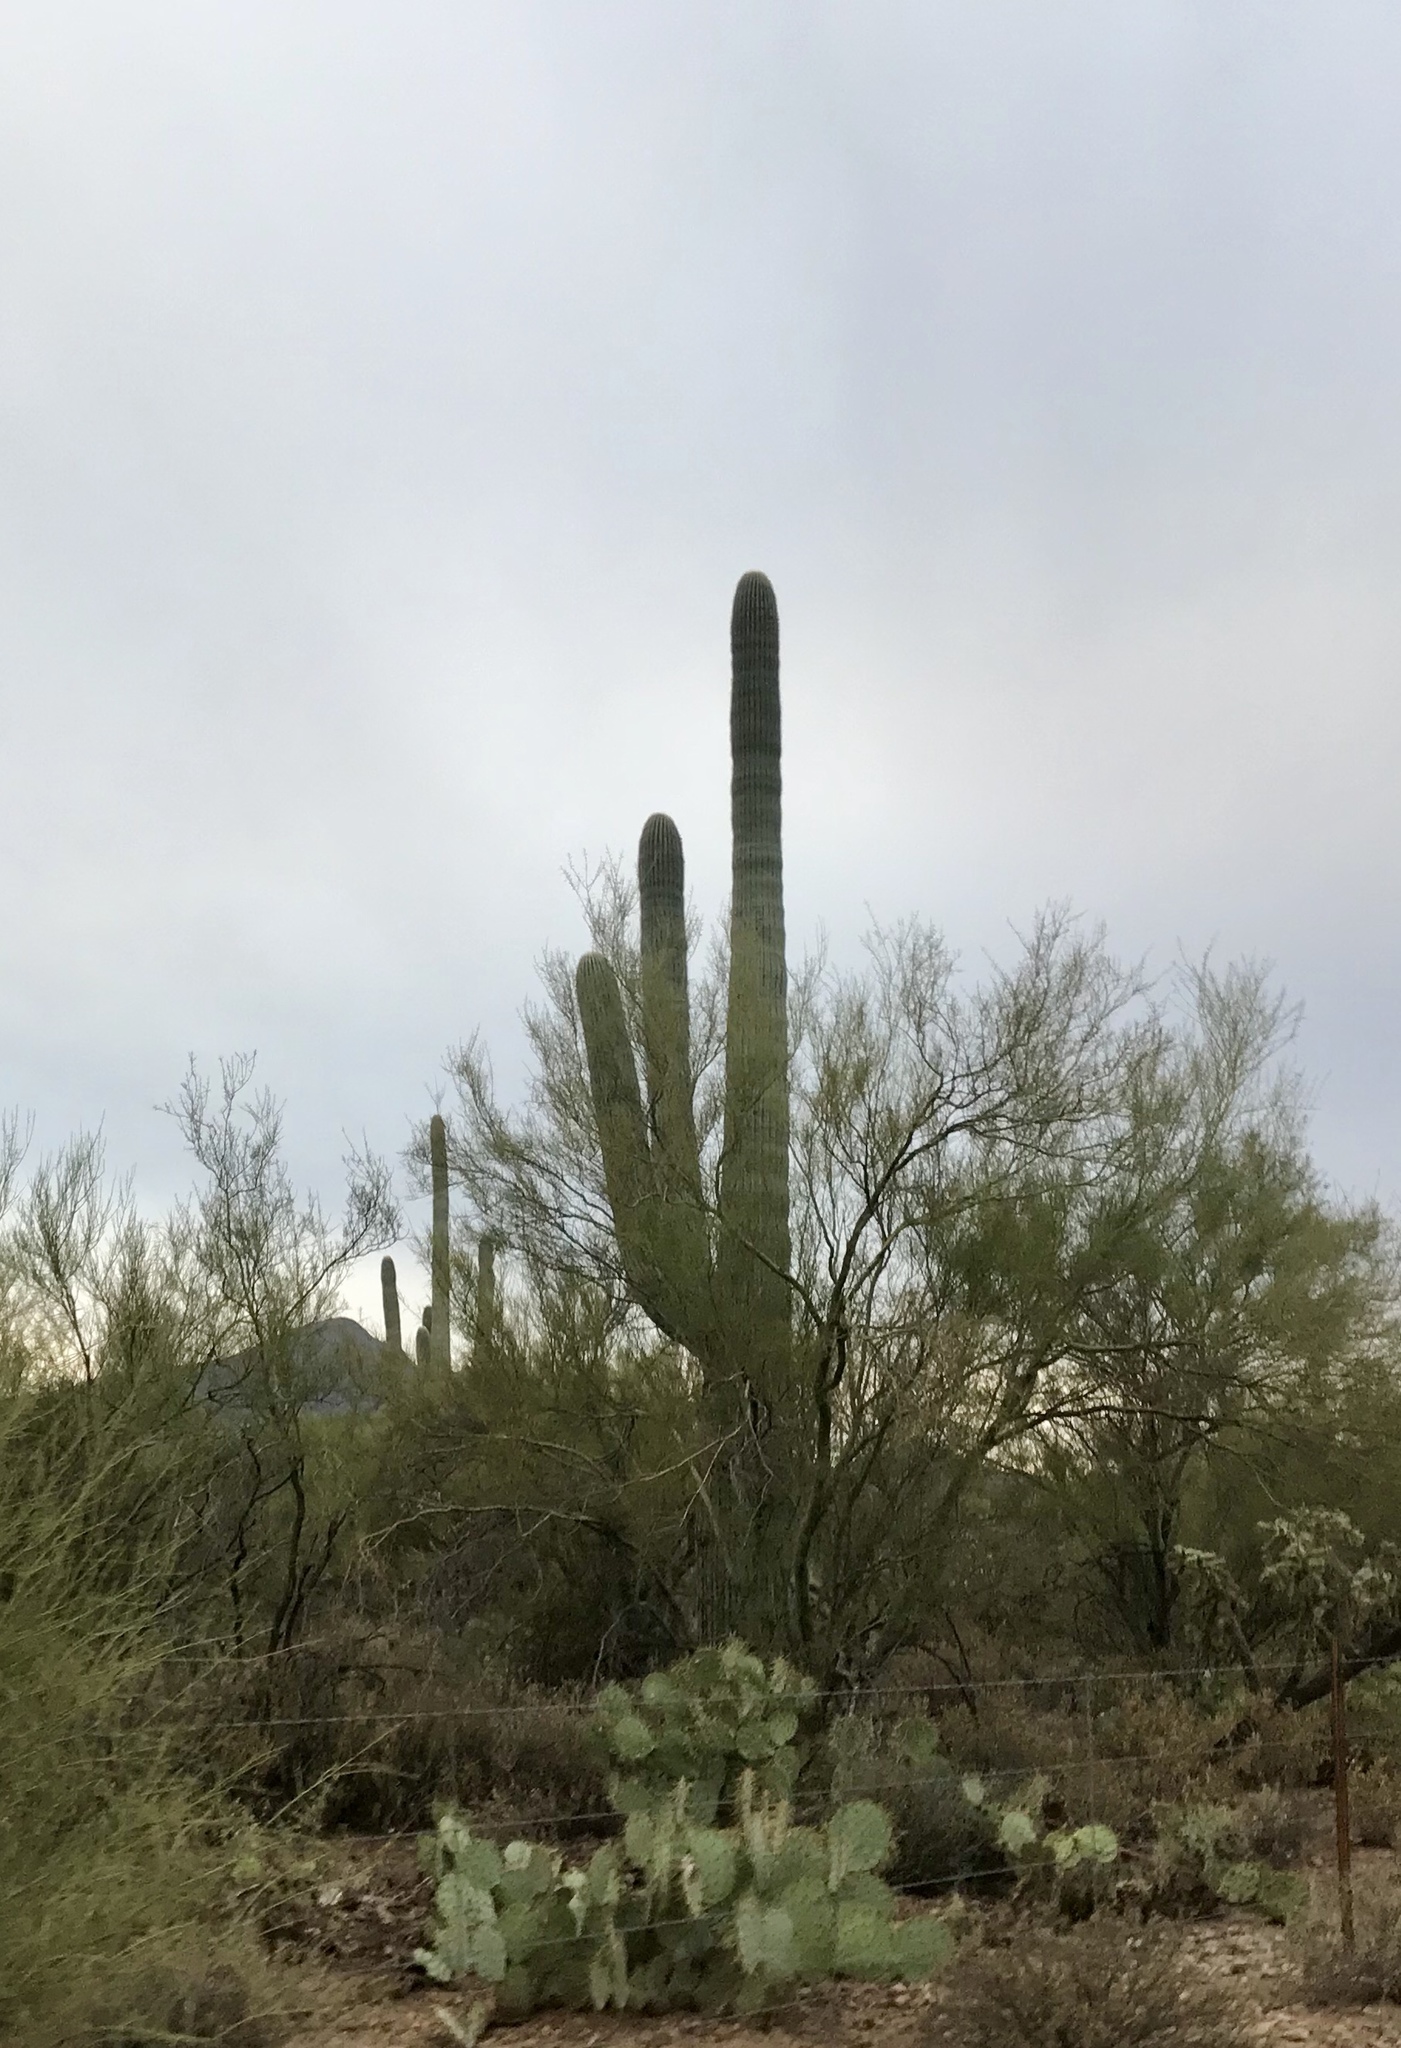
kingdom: Plantae
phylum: Tracheophyta
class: Magnoliopsida
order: Caryophyllales
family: Cactaceae
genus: Carnegiea
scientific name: Carnegiea gigantea
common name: Saguaro
